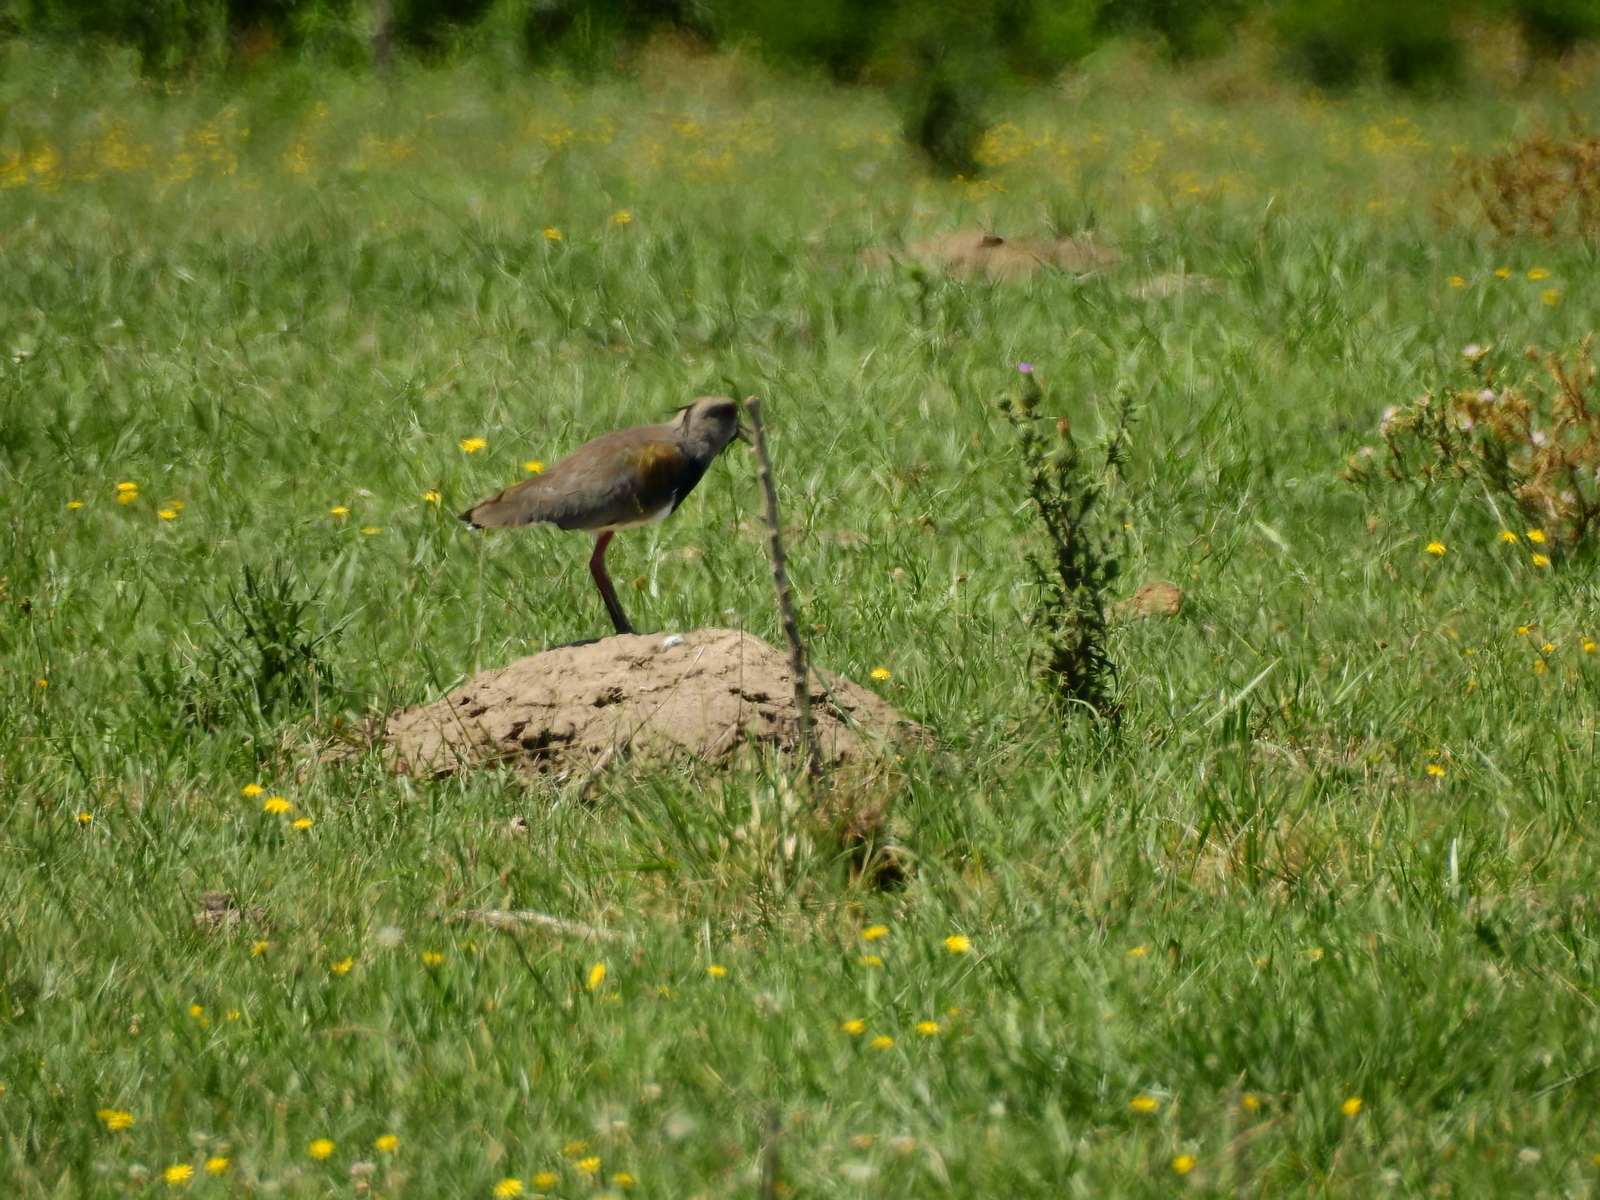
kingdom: Animalia
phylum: Chordata
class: Aves
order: Charadriiformes
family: Charadriidae
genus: Vanellus
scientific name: Vanellus chilensis
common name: Southern lapwing
